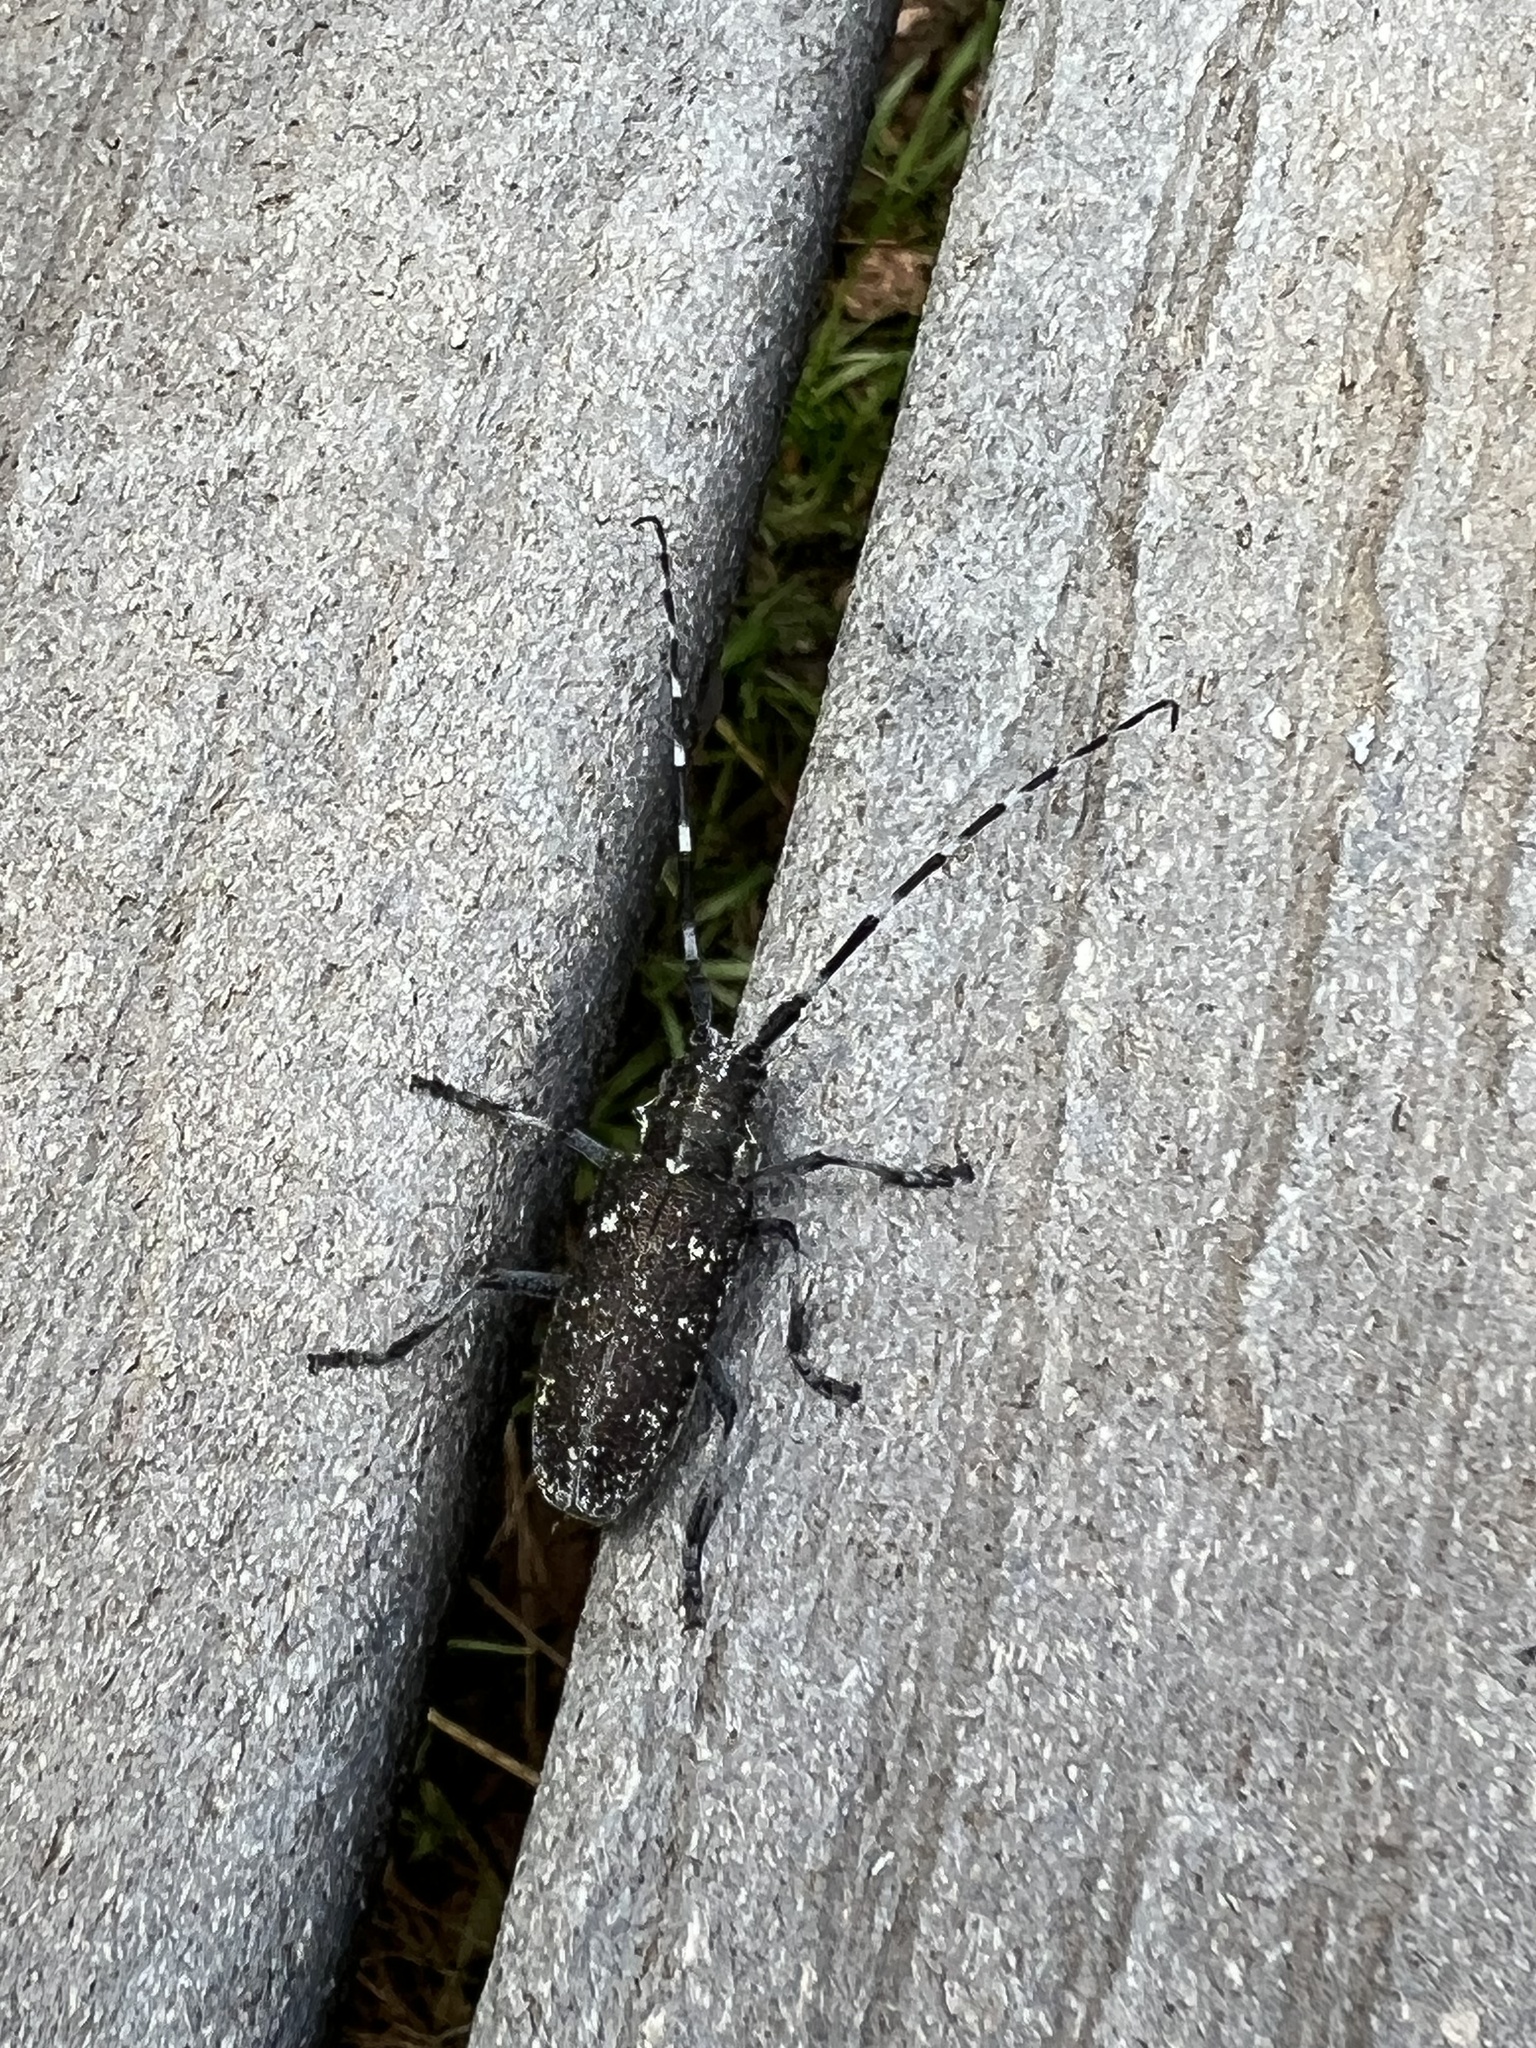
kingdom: Animalia
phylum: Arthropoda
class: Insecta
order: Coleoptera
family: Cerambycidae
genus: Monochamus
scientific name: Monochamus scutellatus
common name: White-spotted sawyer beetle
